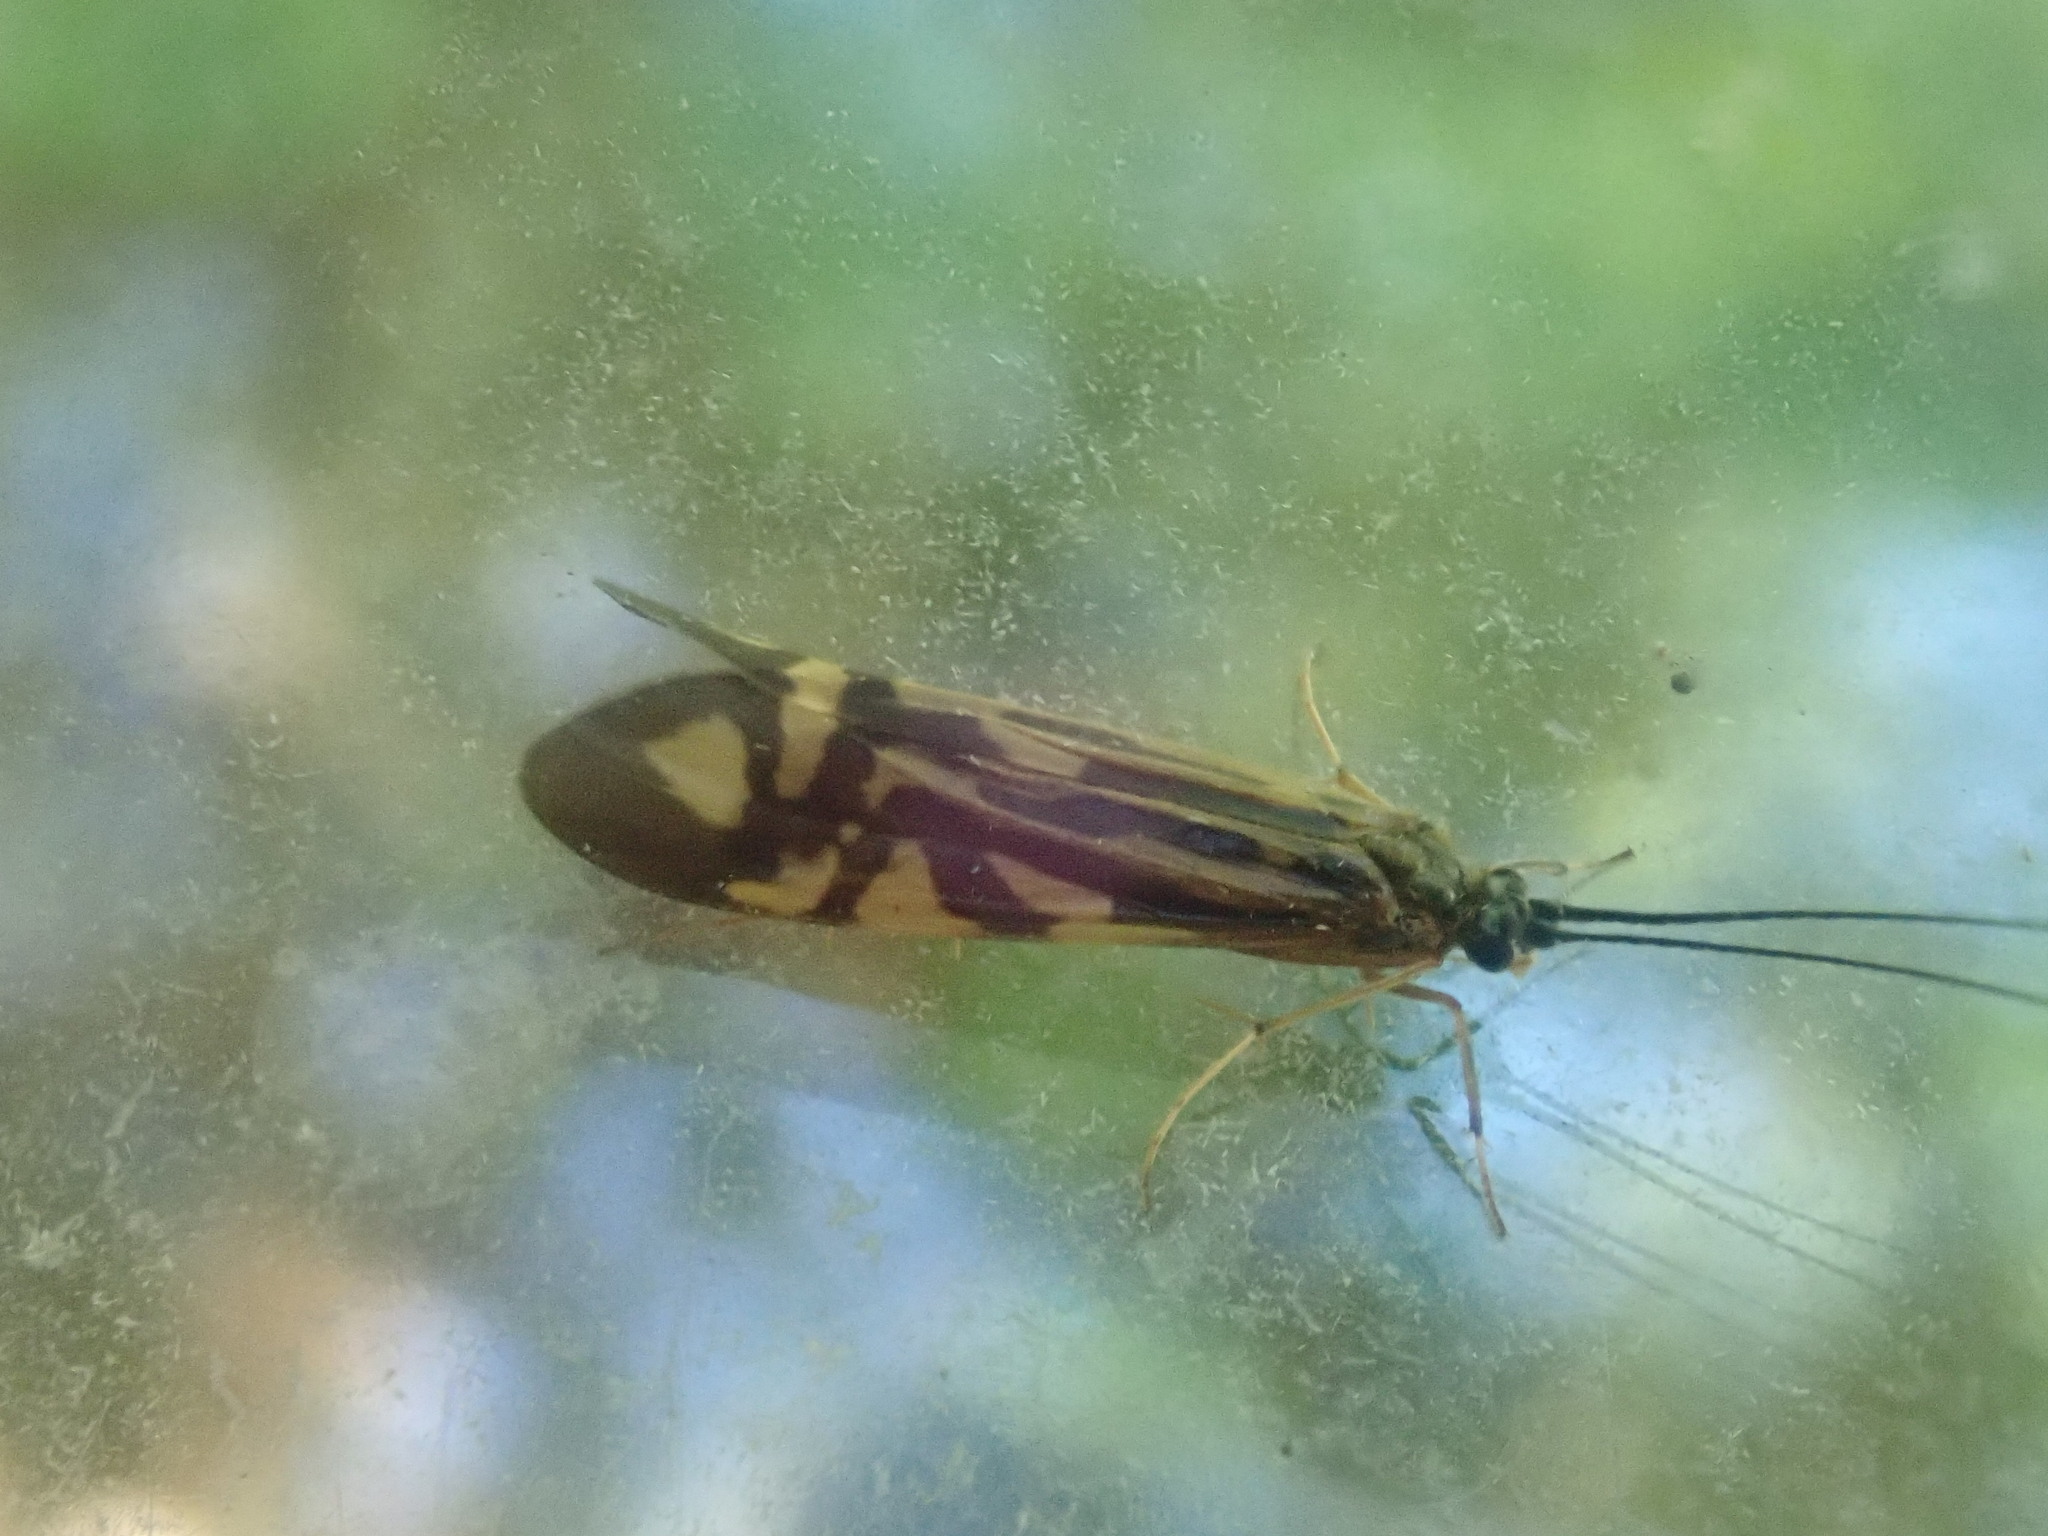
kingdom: Animalia
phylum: Arthropoda
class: Insecta
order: Trichoptera
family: Hydropsychidae
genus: Macrostemum
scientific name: Macrostemum zebratum
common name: Zebra caddisfly
